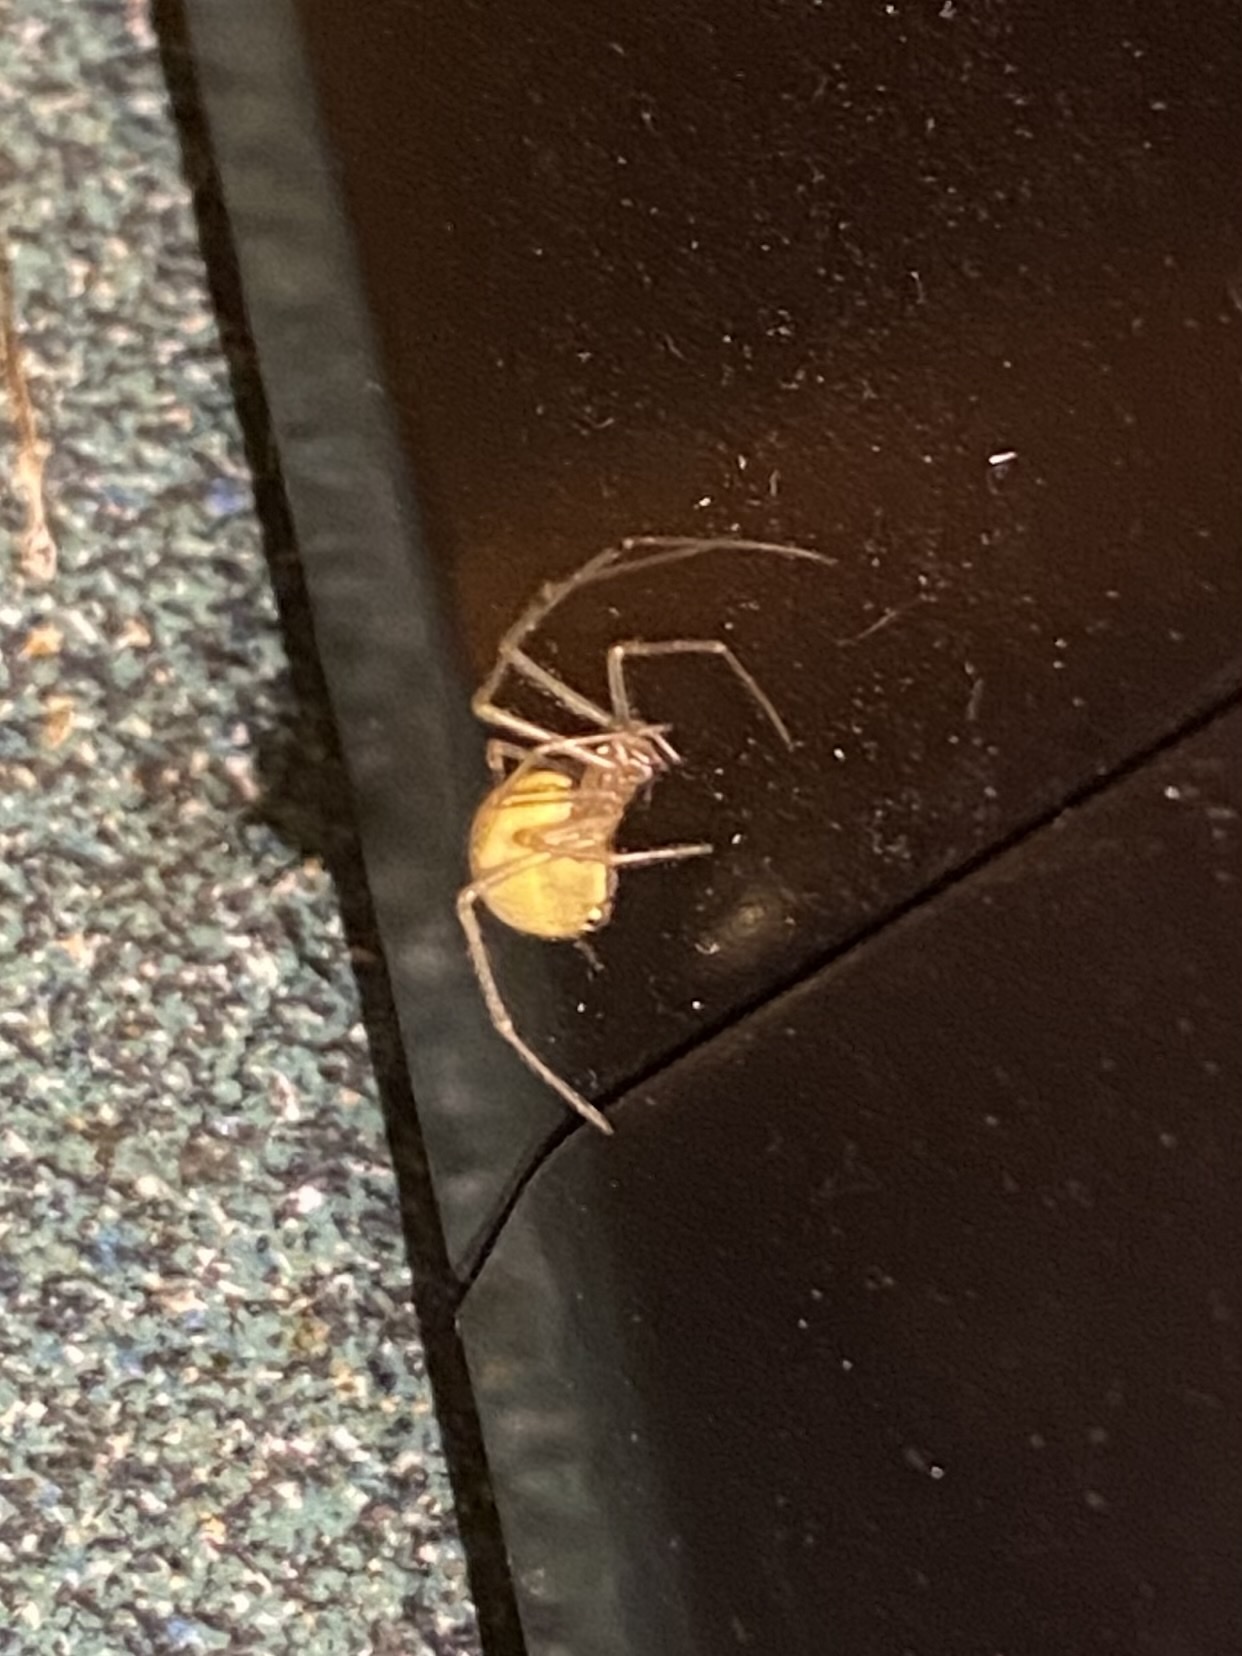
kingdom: Animalia
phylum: Arthropoda
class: Arachnida
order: Araneae
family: Theridiidae
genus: Enoplognatha
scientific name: Enoplognatha ovata
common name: Common candy-striped spider
